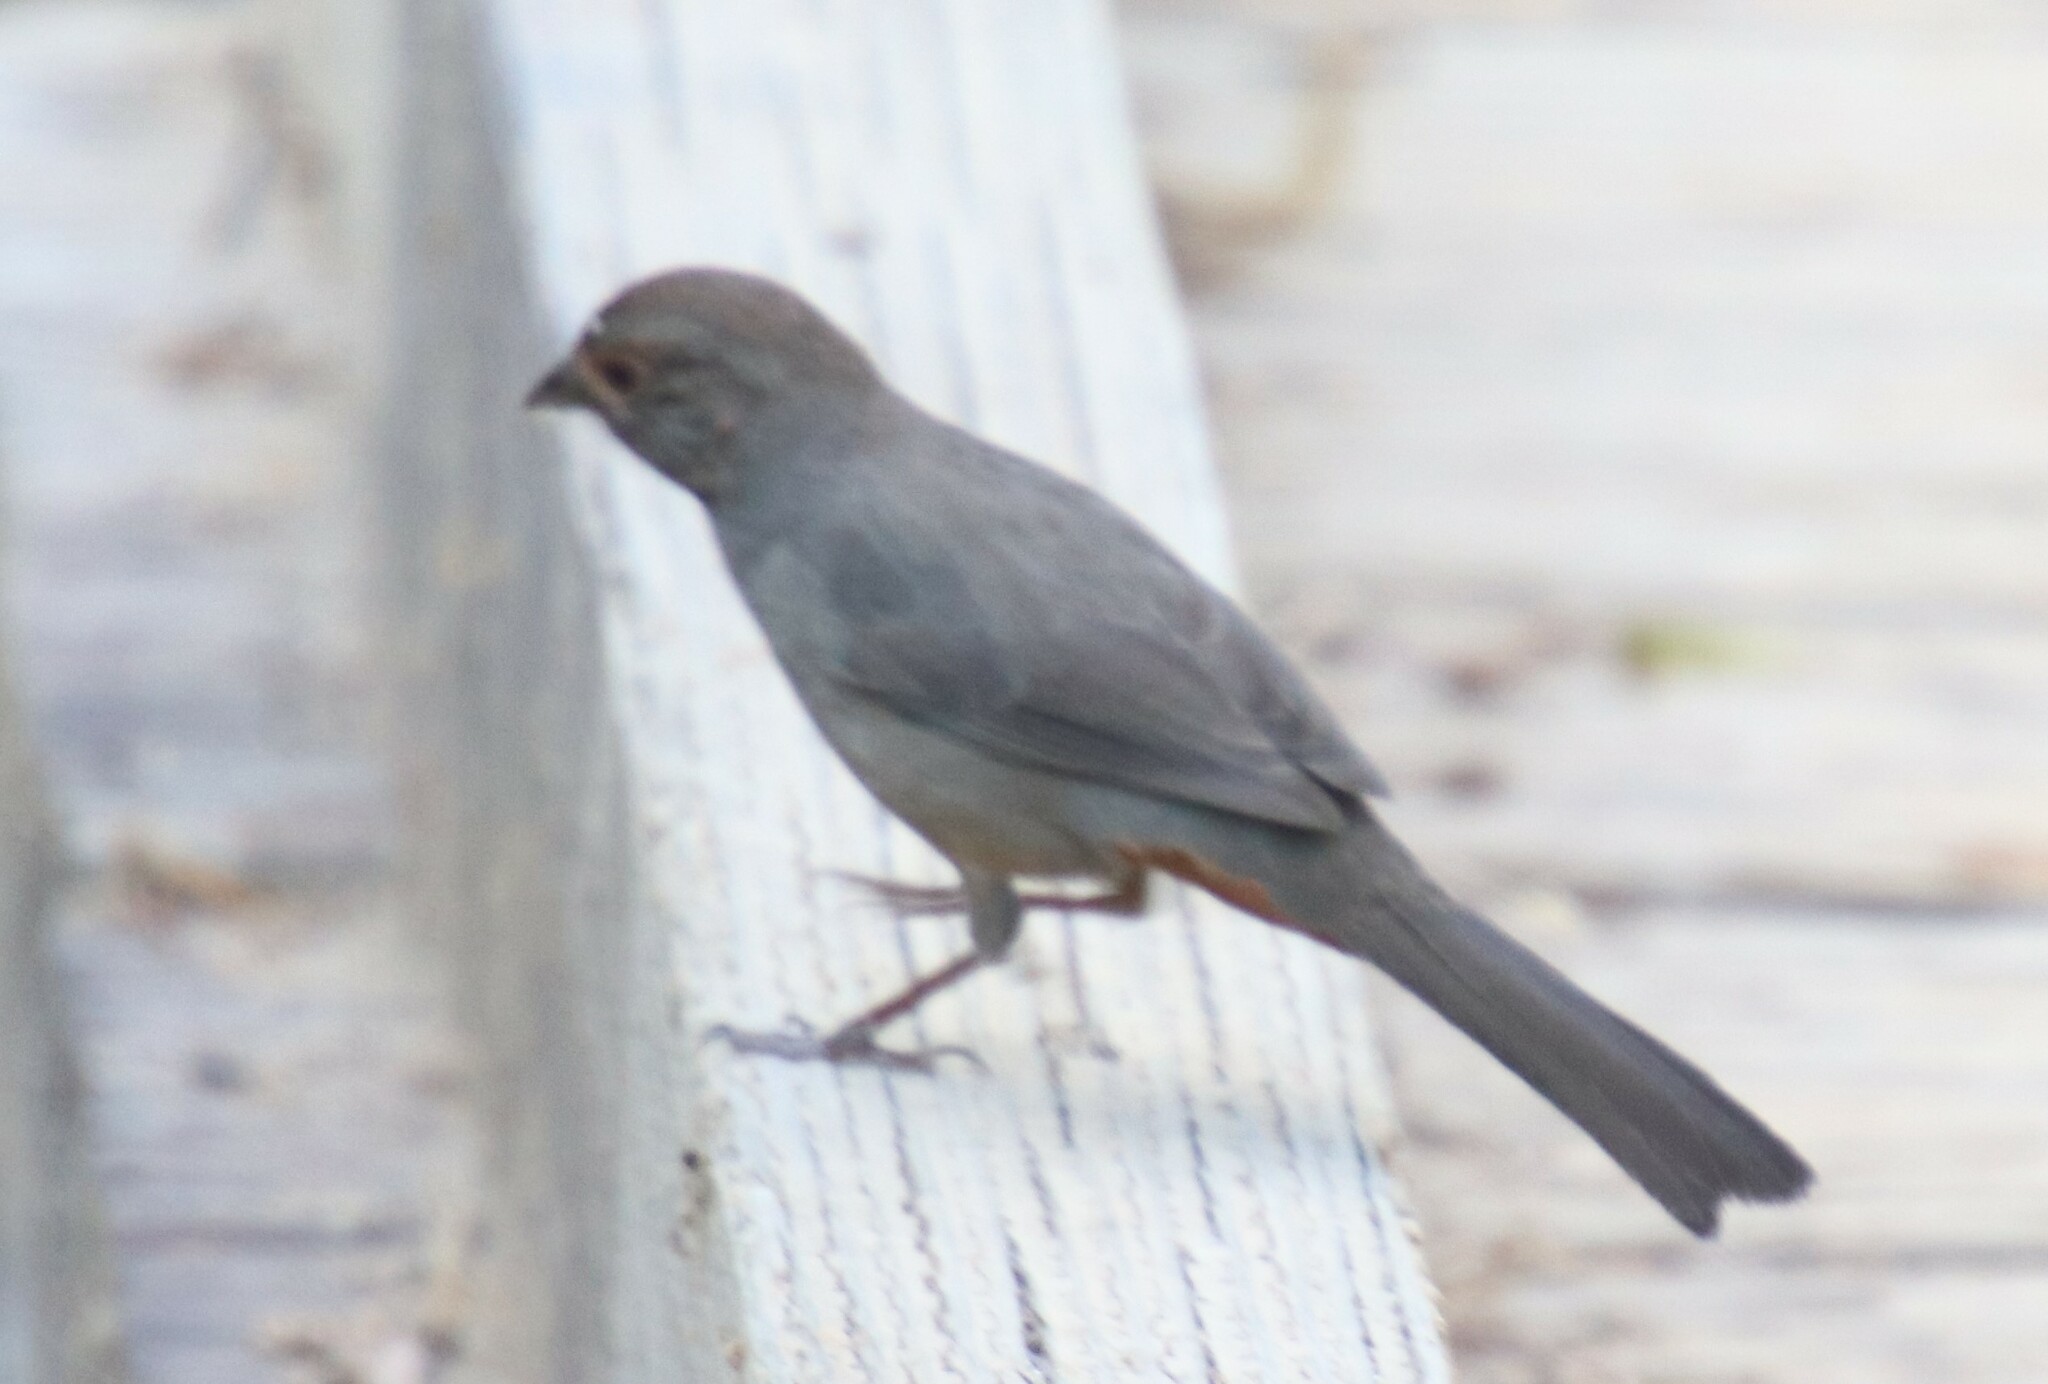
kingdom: Animalia
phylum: Chordata
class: Aves
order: Passeriformes
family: Passerellidae
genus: Melozone
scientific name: Melozone crissalis
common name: California towhee
